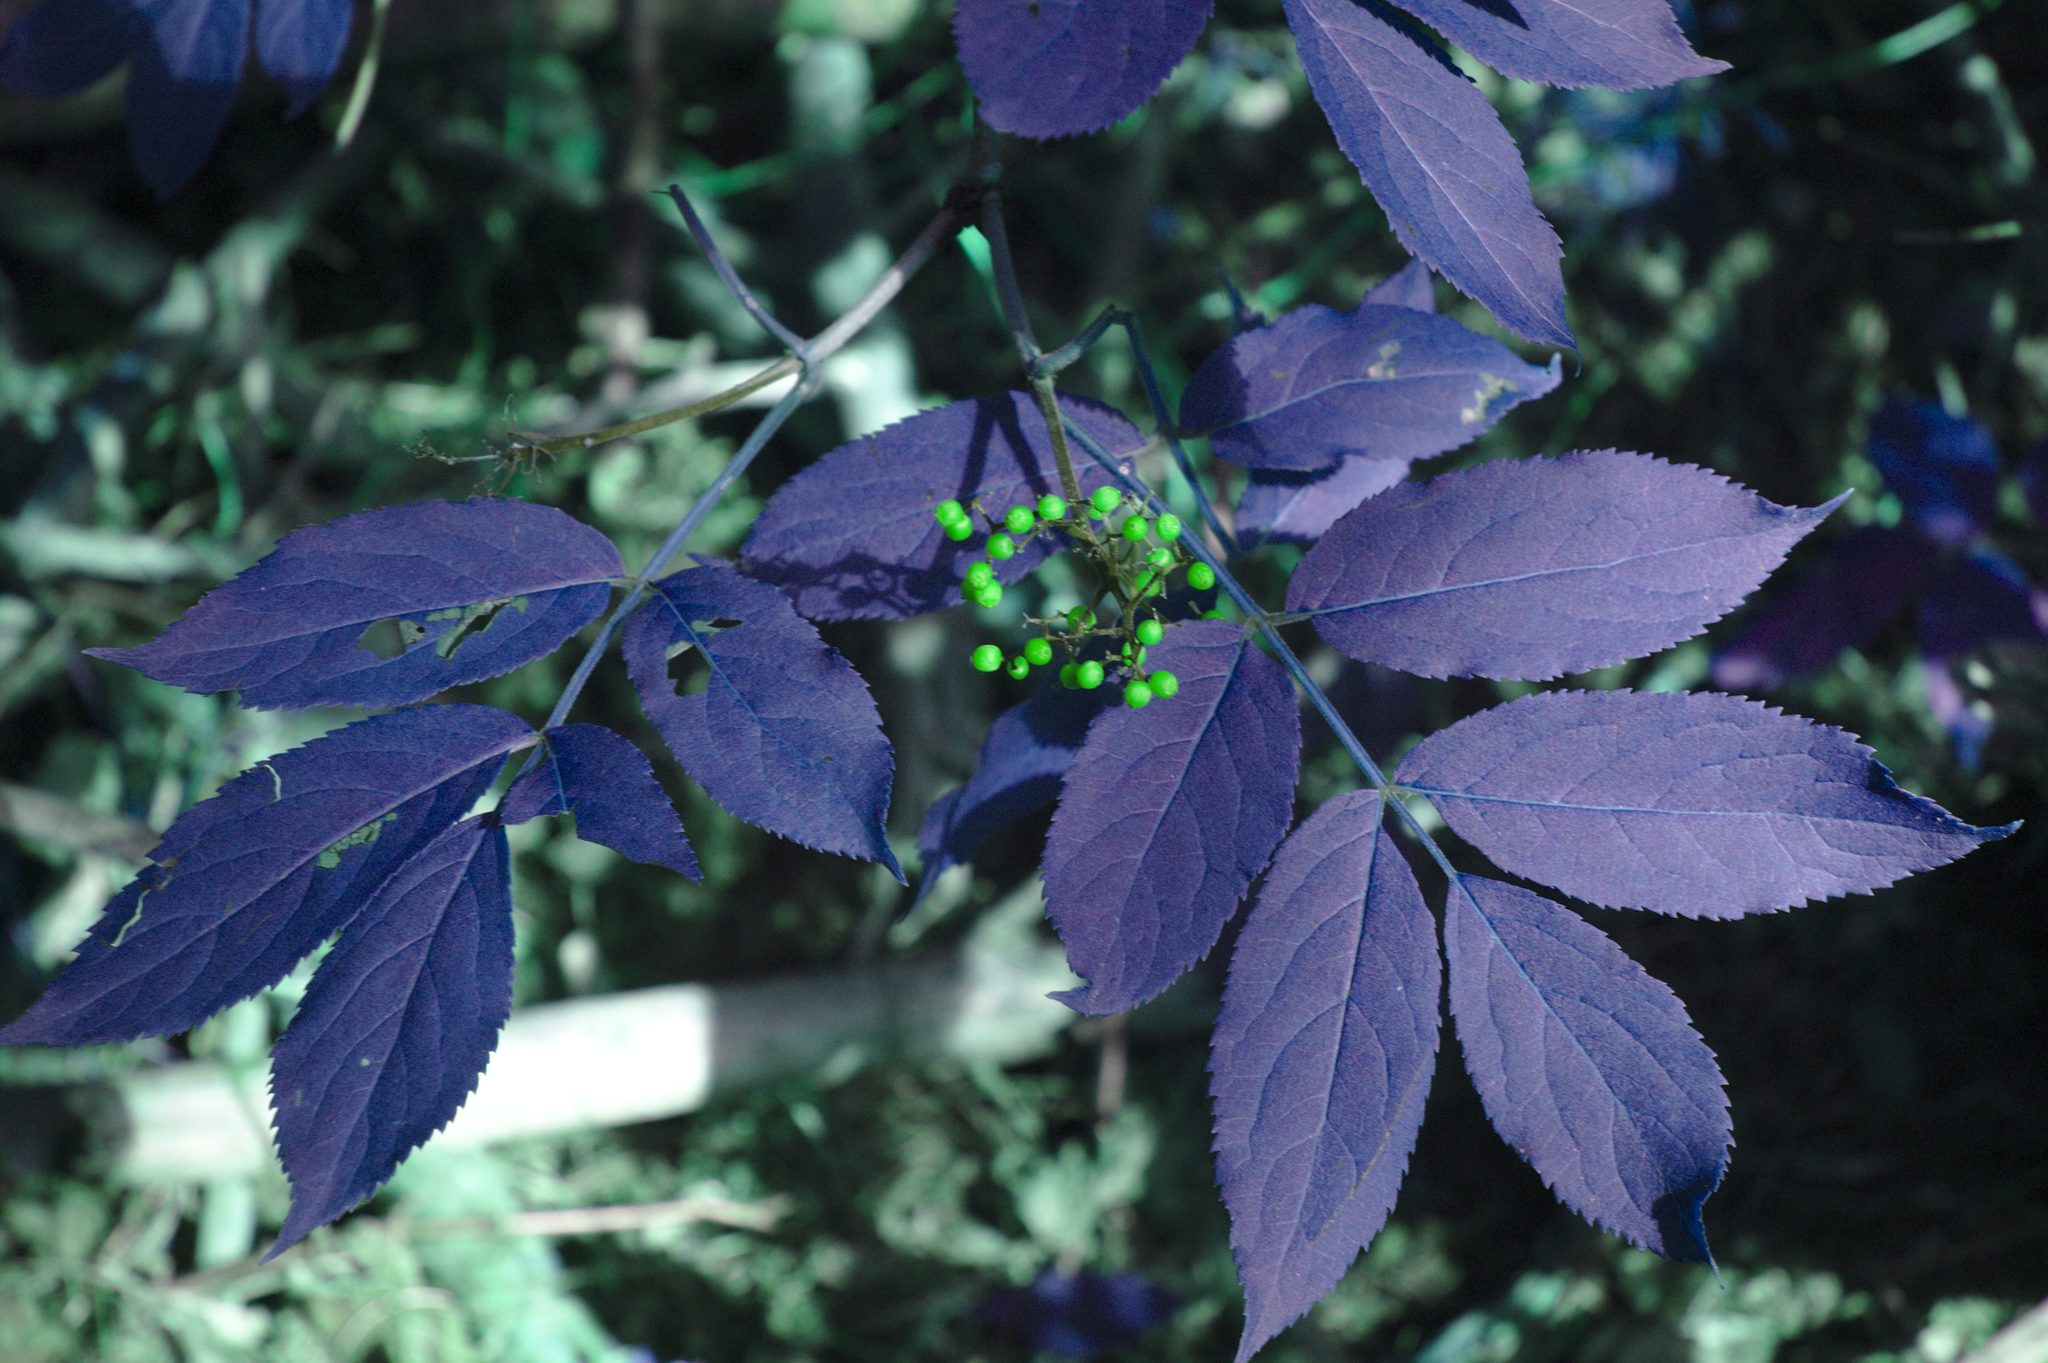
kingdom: Plantae
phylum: Tracheophyta
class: Magnoliopsida
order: Dipsacales
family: Viburnaceae
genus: Sambucus
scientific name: Sambucus racemosa
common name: Red-berried elder
